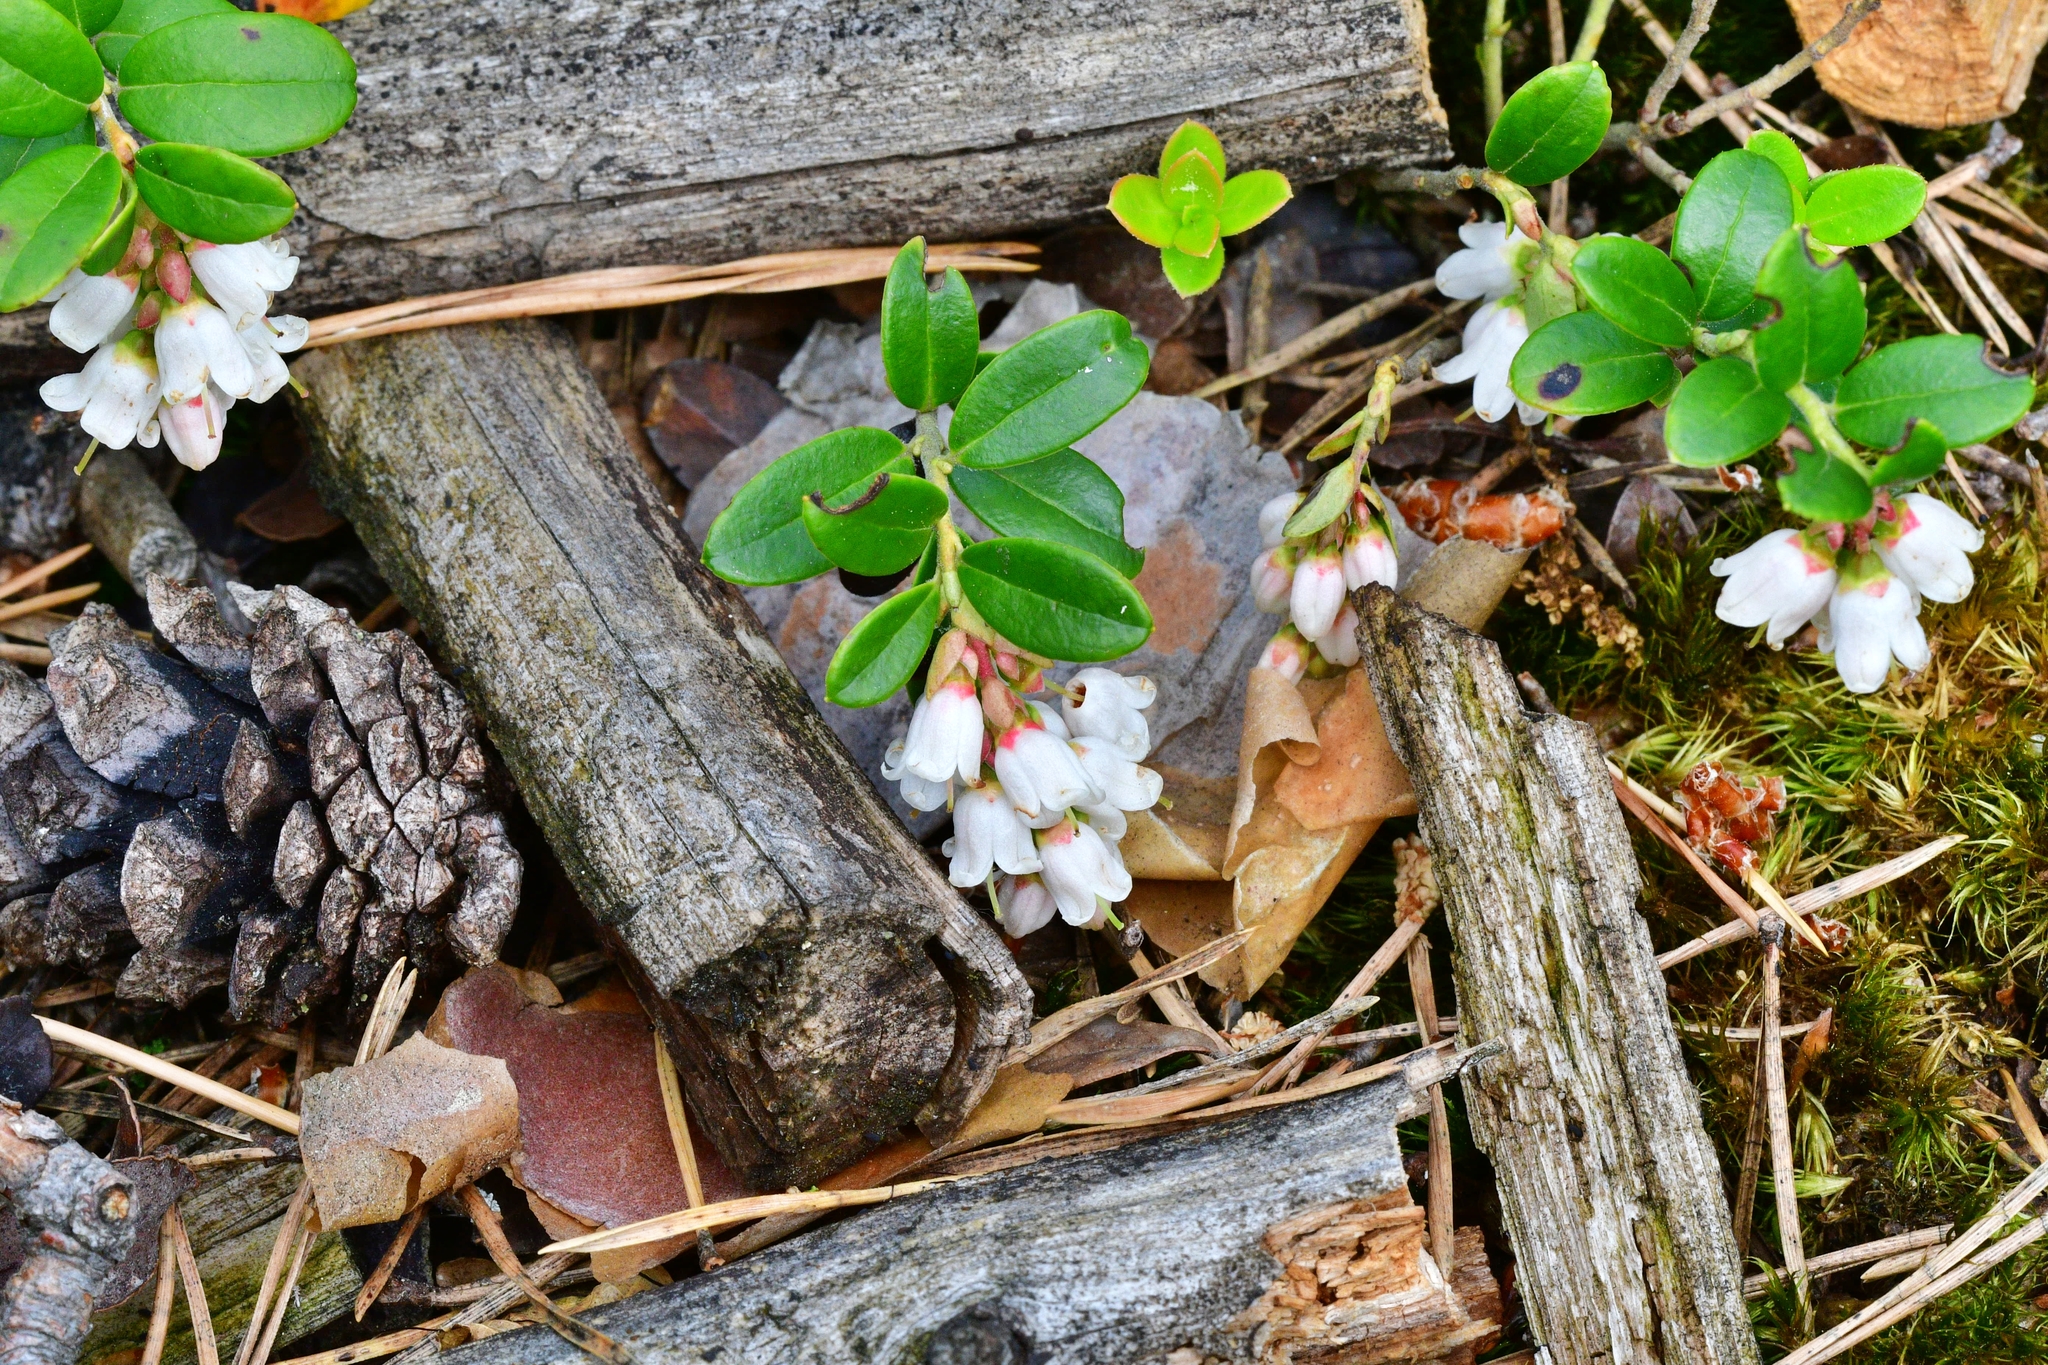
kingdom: Plantae
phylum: Tracheophyta
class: Magnoliopsida
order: Ericales
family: Ericaceae
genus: Vaccinium
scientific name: Vaccinium vitis-idaea
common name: Cowberry
